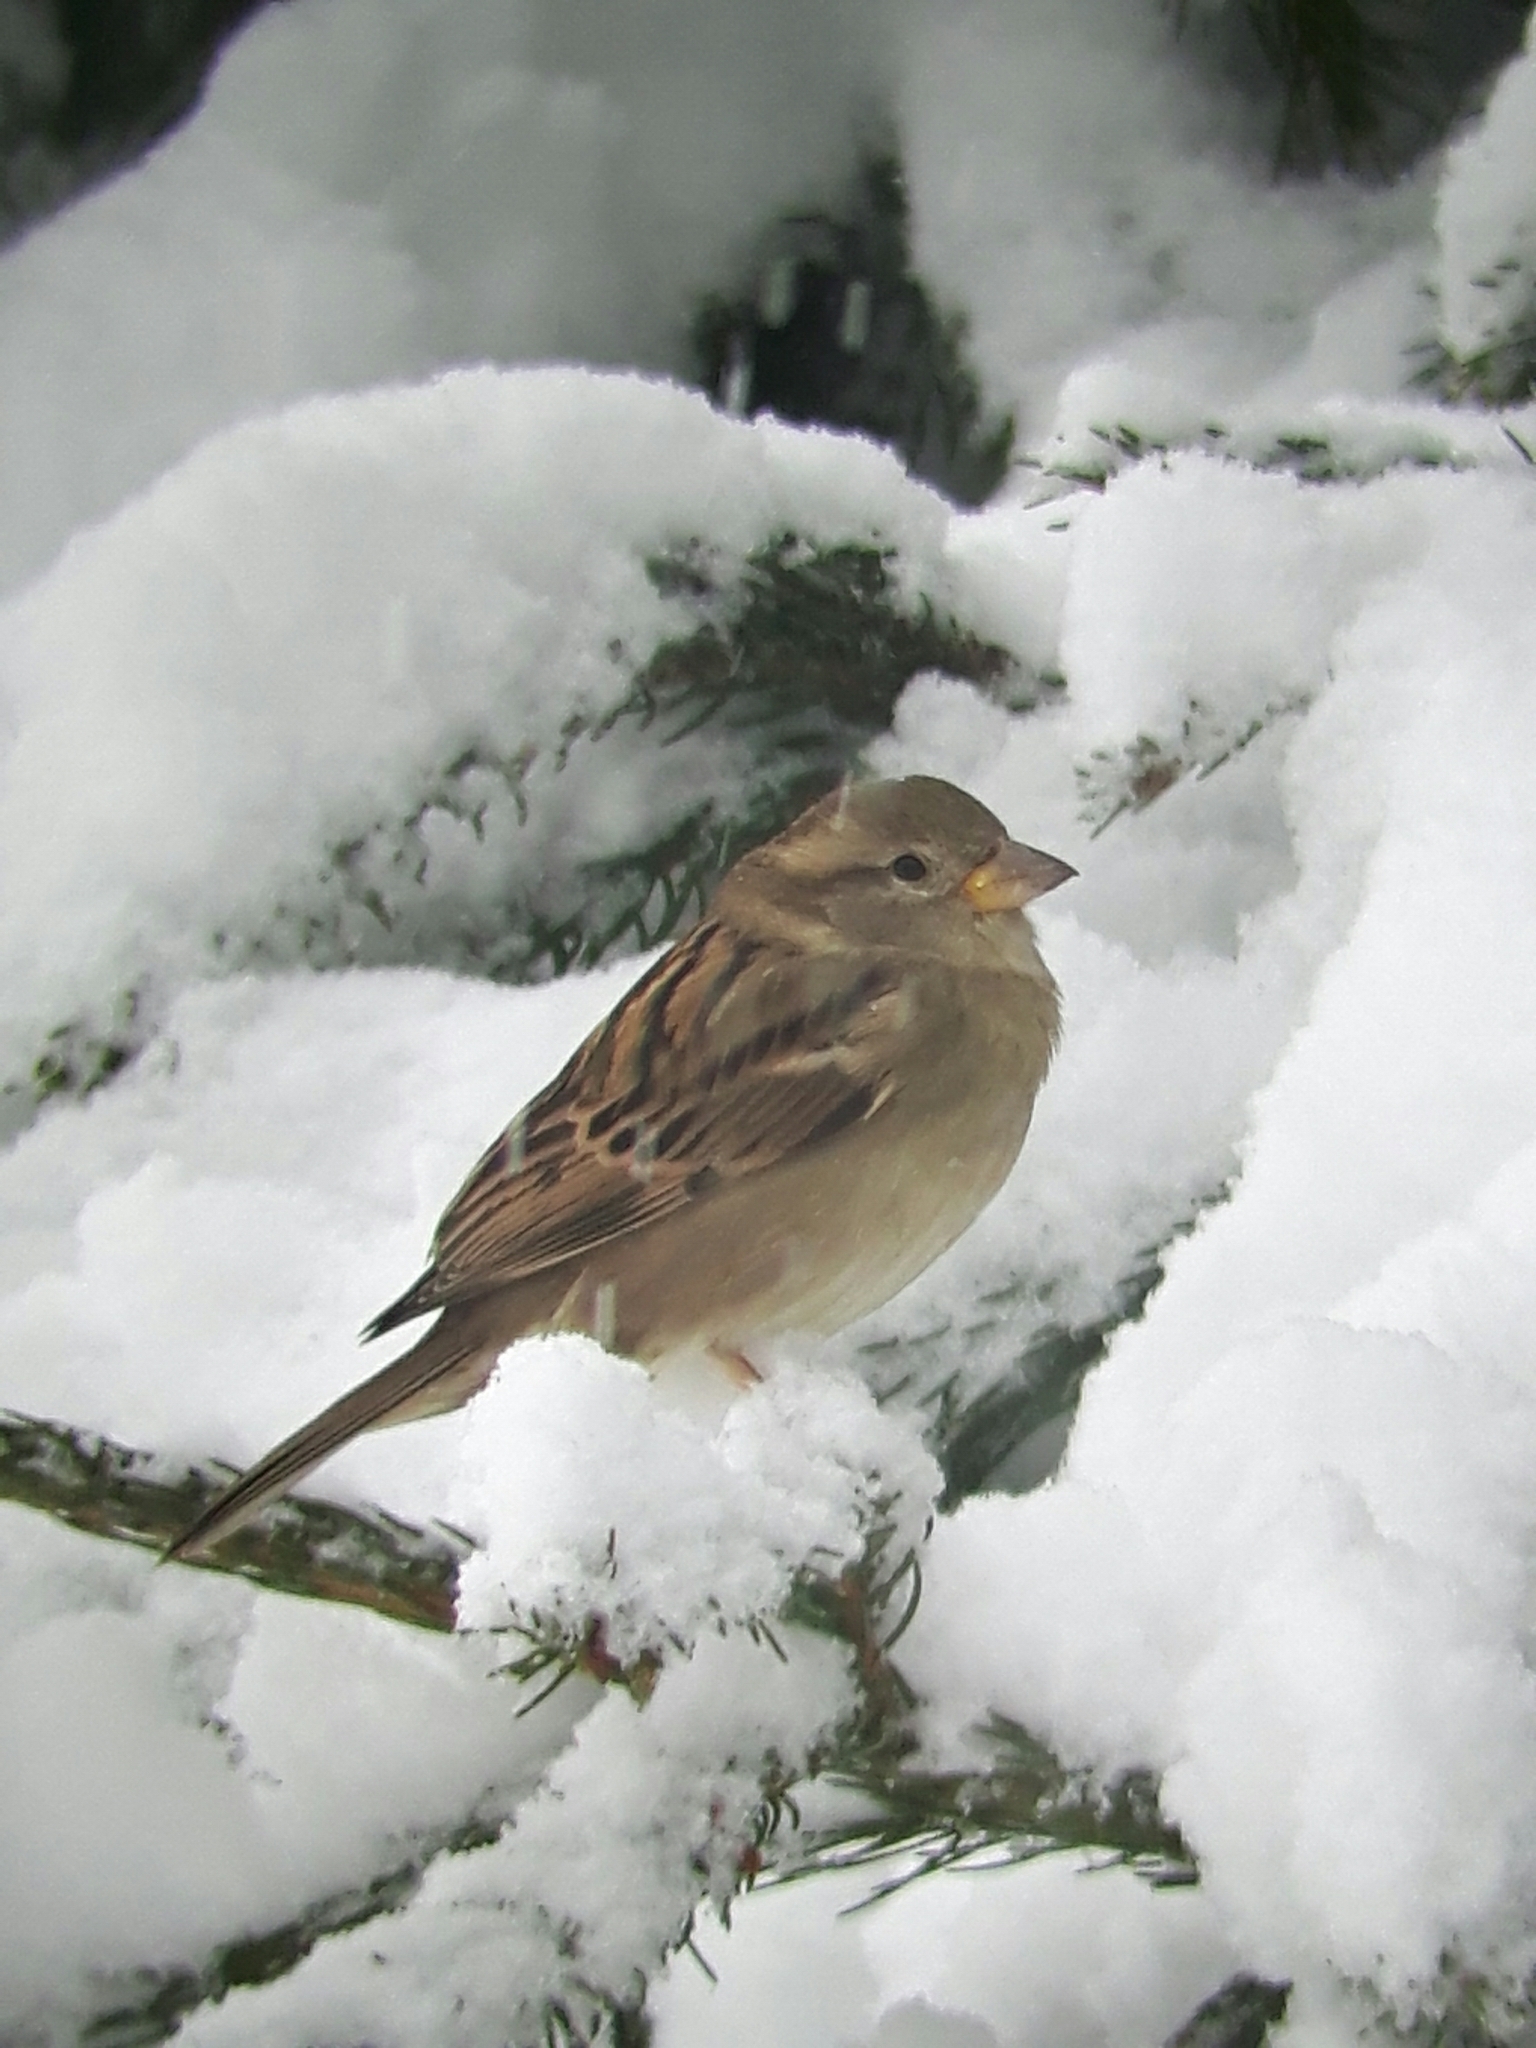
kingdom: Animalia
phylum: Chordata
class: Aves
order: Passeriformes
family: Passeridae
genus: Passer
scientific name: Passer domesticus
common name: House sparrow
